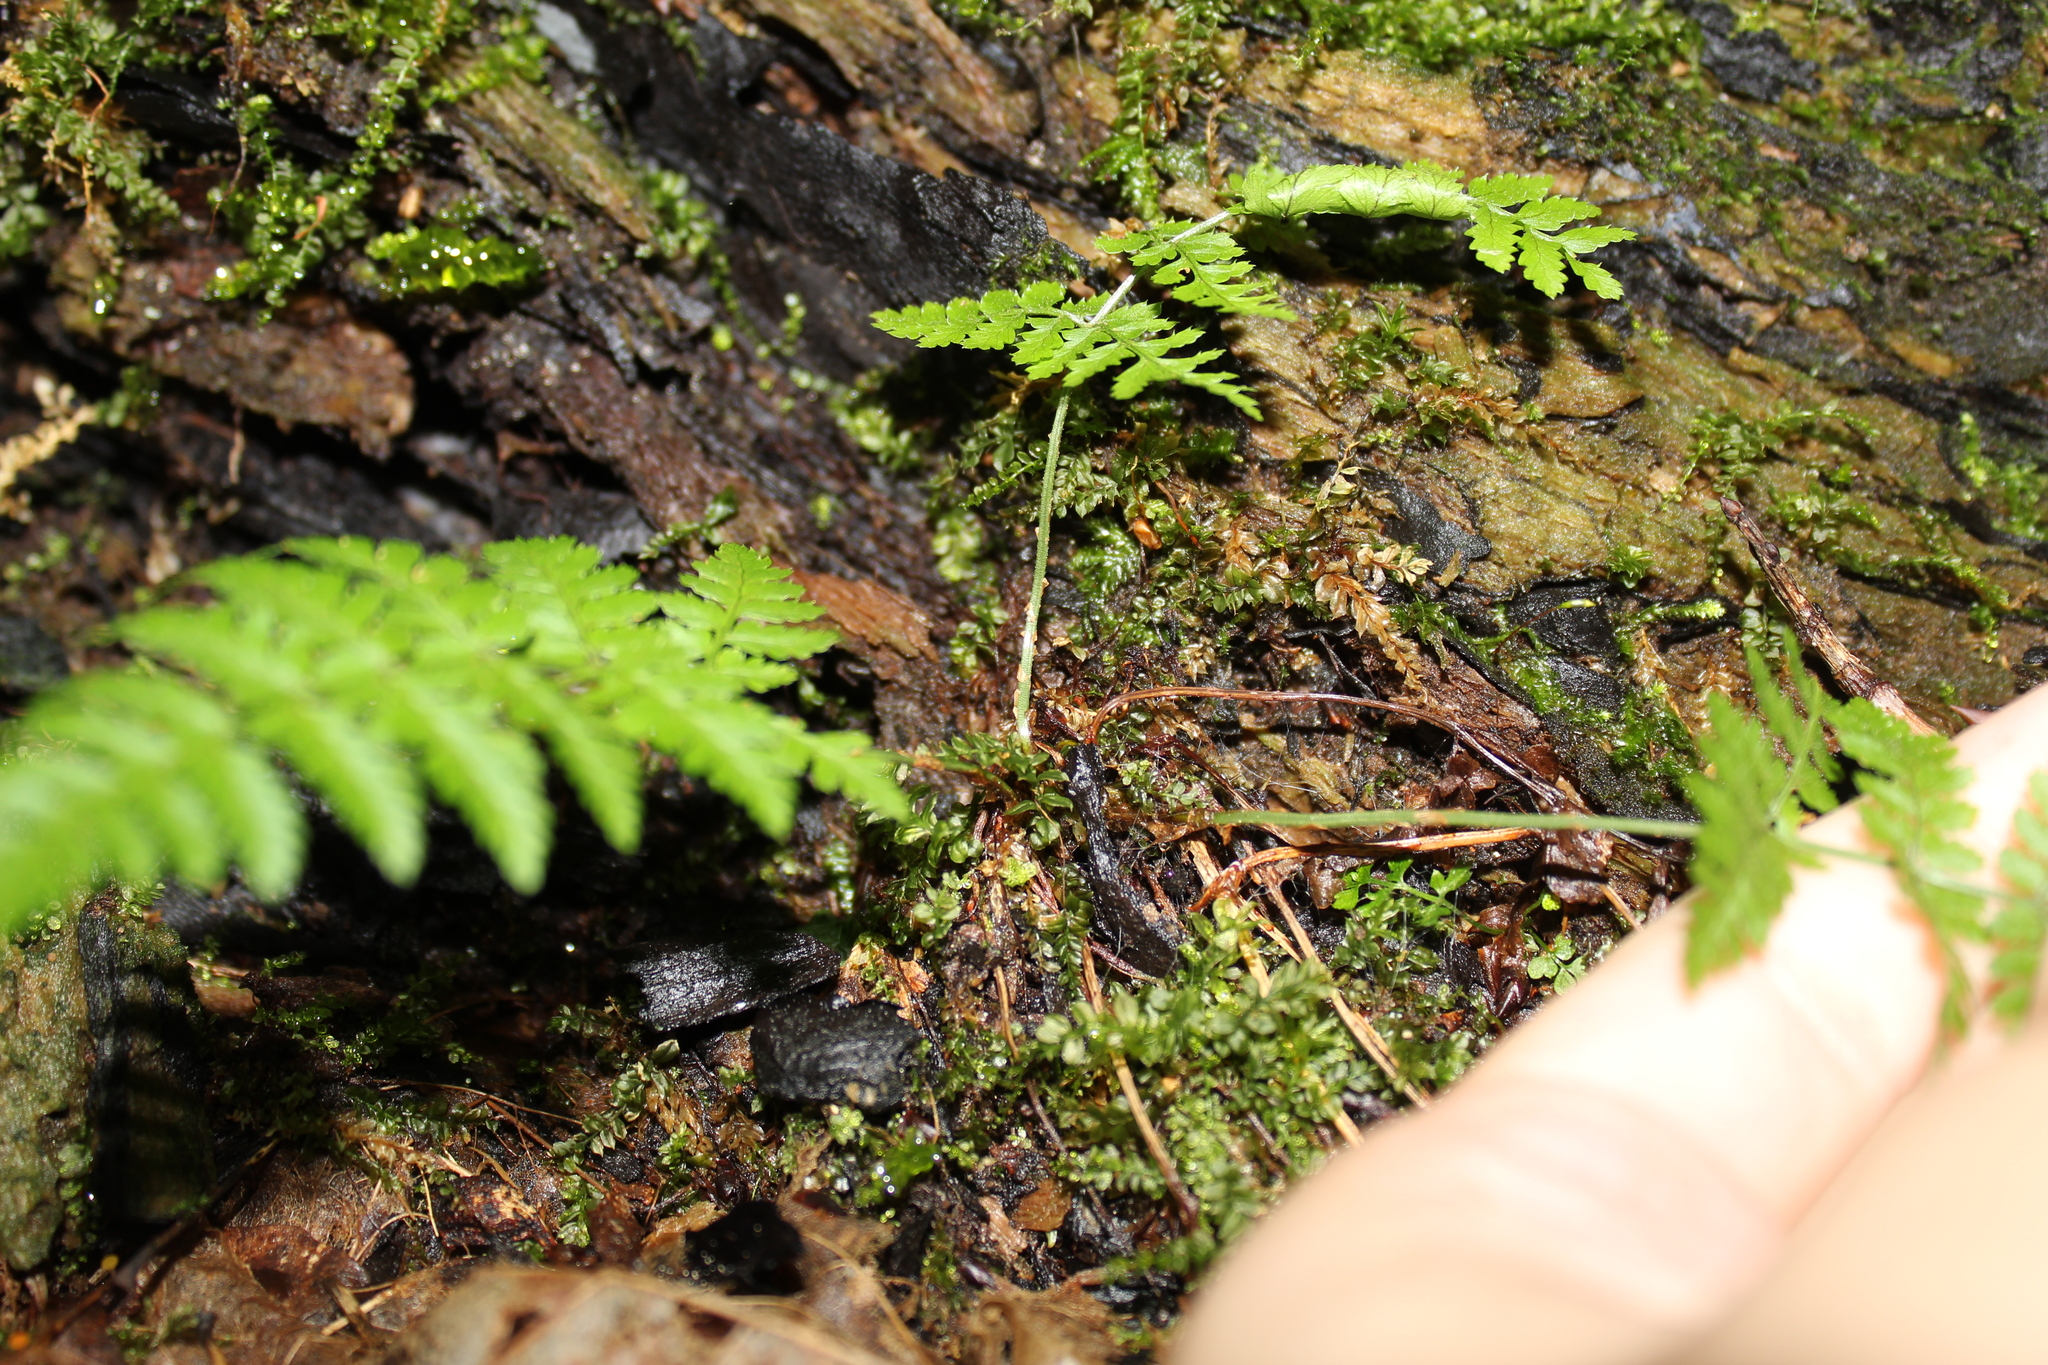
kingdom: Plantae
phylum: Tracheophyta
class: Polypodiopsida
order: Polypodiales
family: Dryopteridaceae
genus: Dryopteris
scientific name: Dryopteris intermedia
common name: Evergreen wood fern
